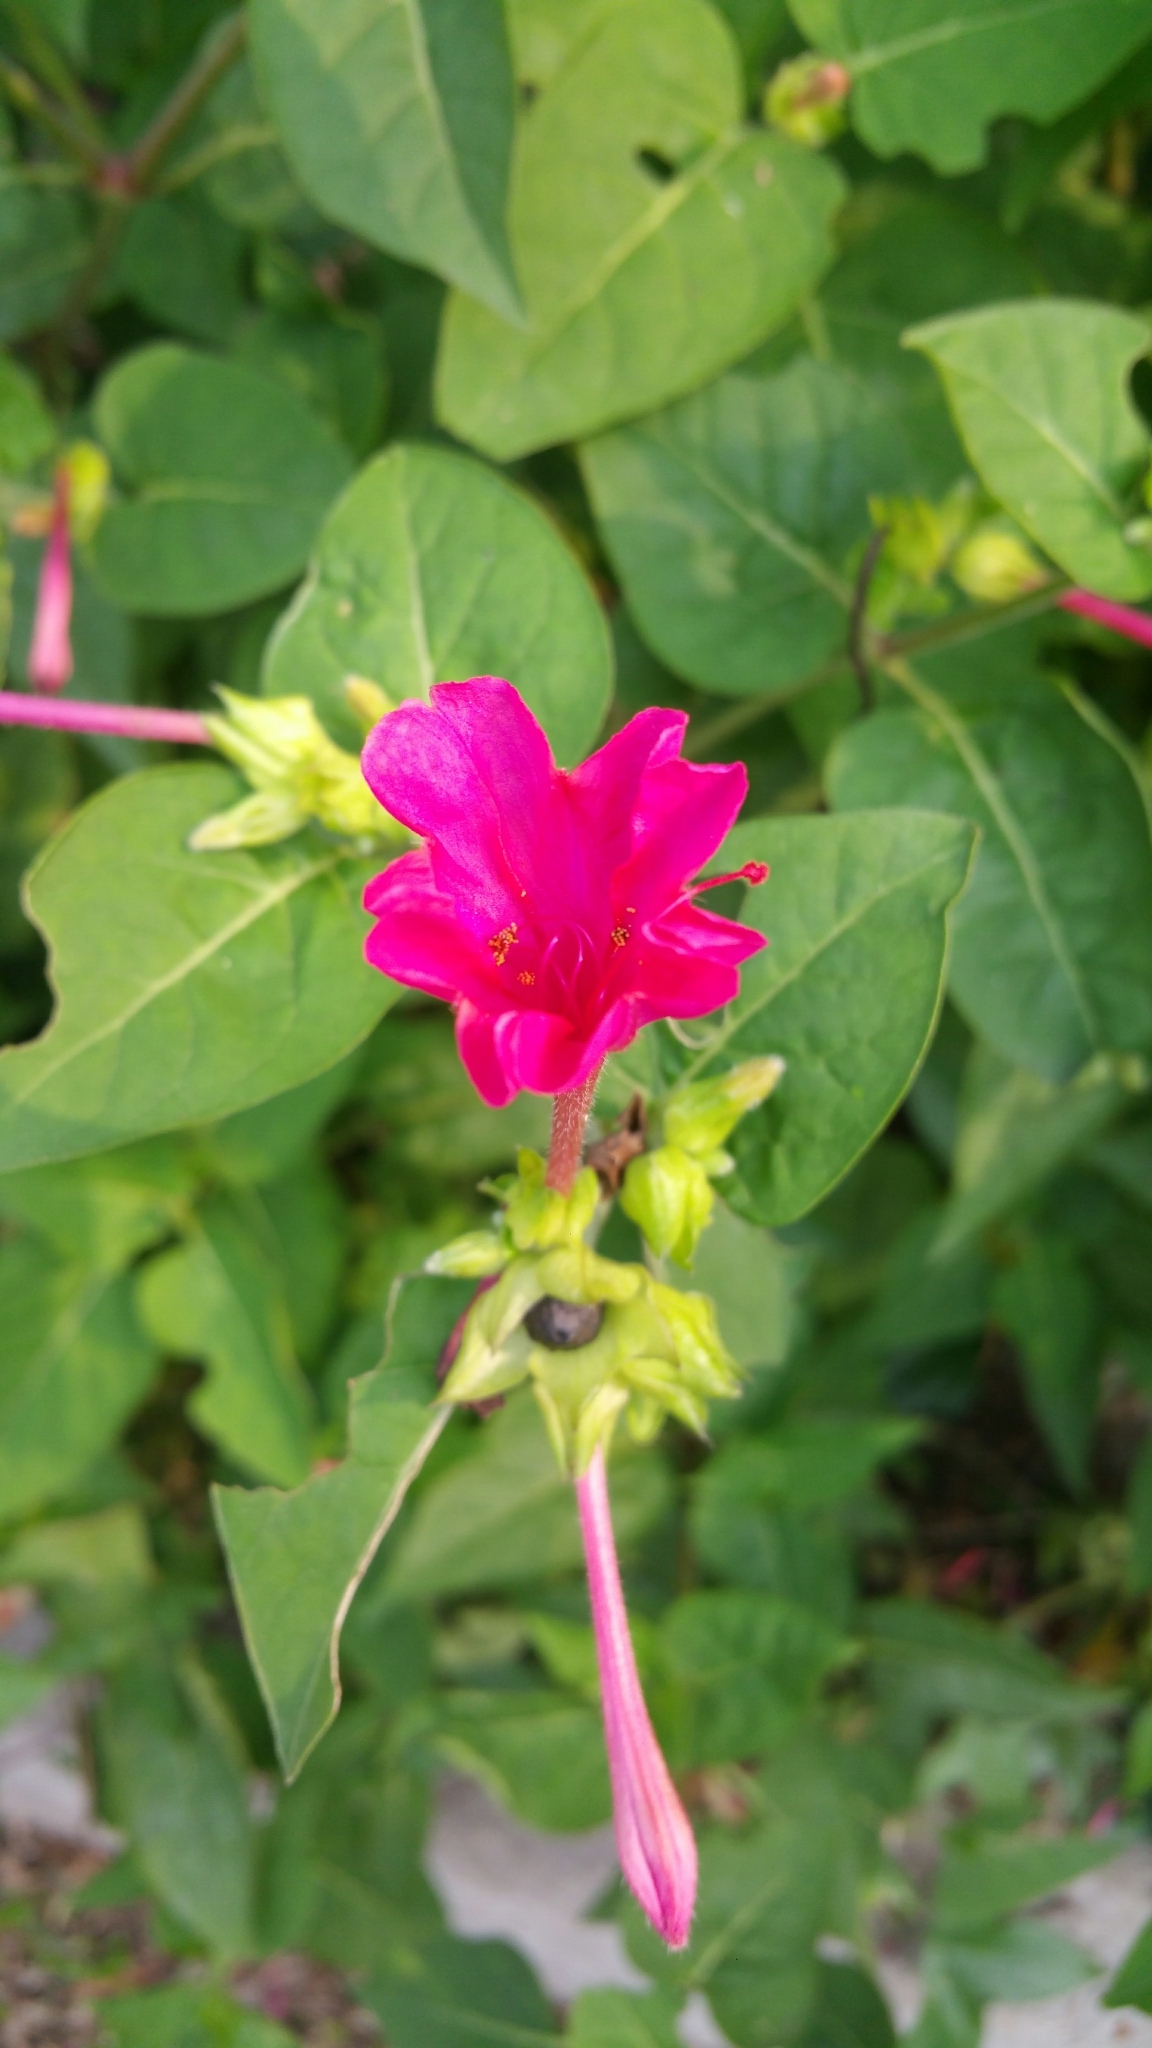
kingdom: Plantae
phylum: Tracheophyta
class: Magnoliopsida
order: Caryophyllales
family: Nyctaginaceae
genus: Mirabilis
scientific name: Mirabilis jalapa
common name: Marvel-of-peru
